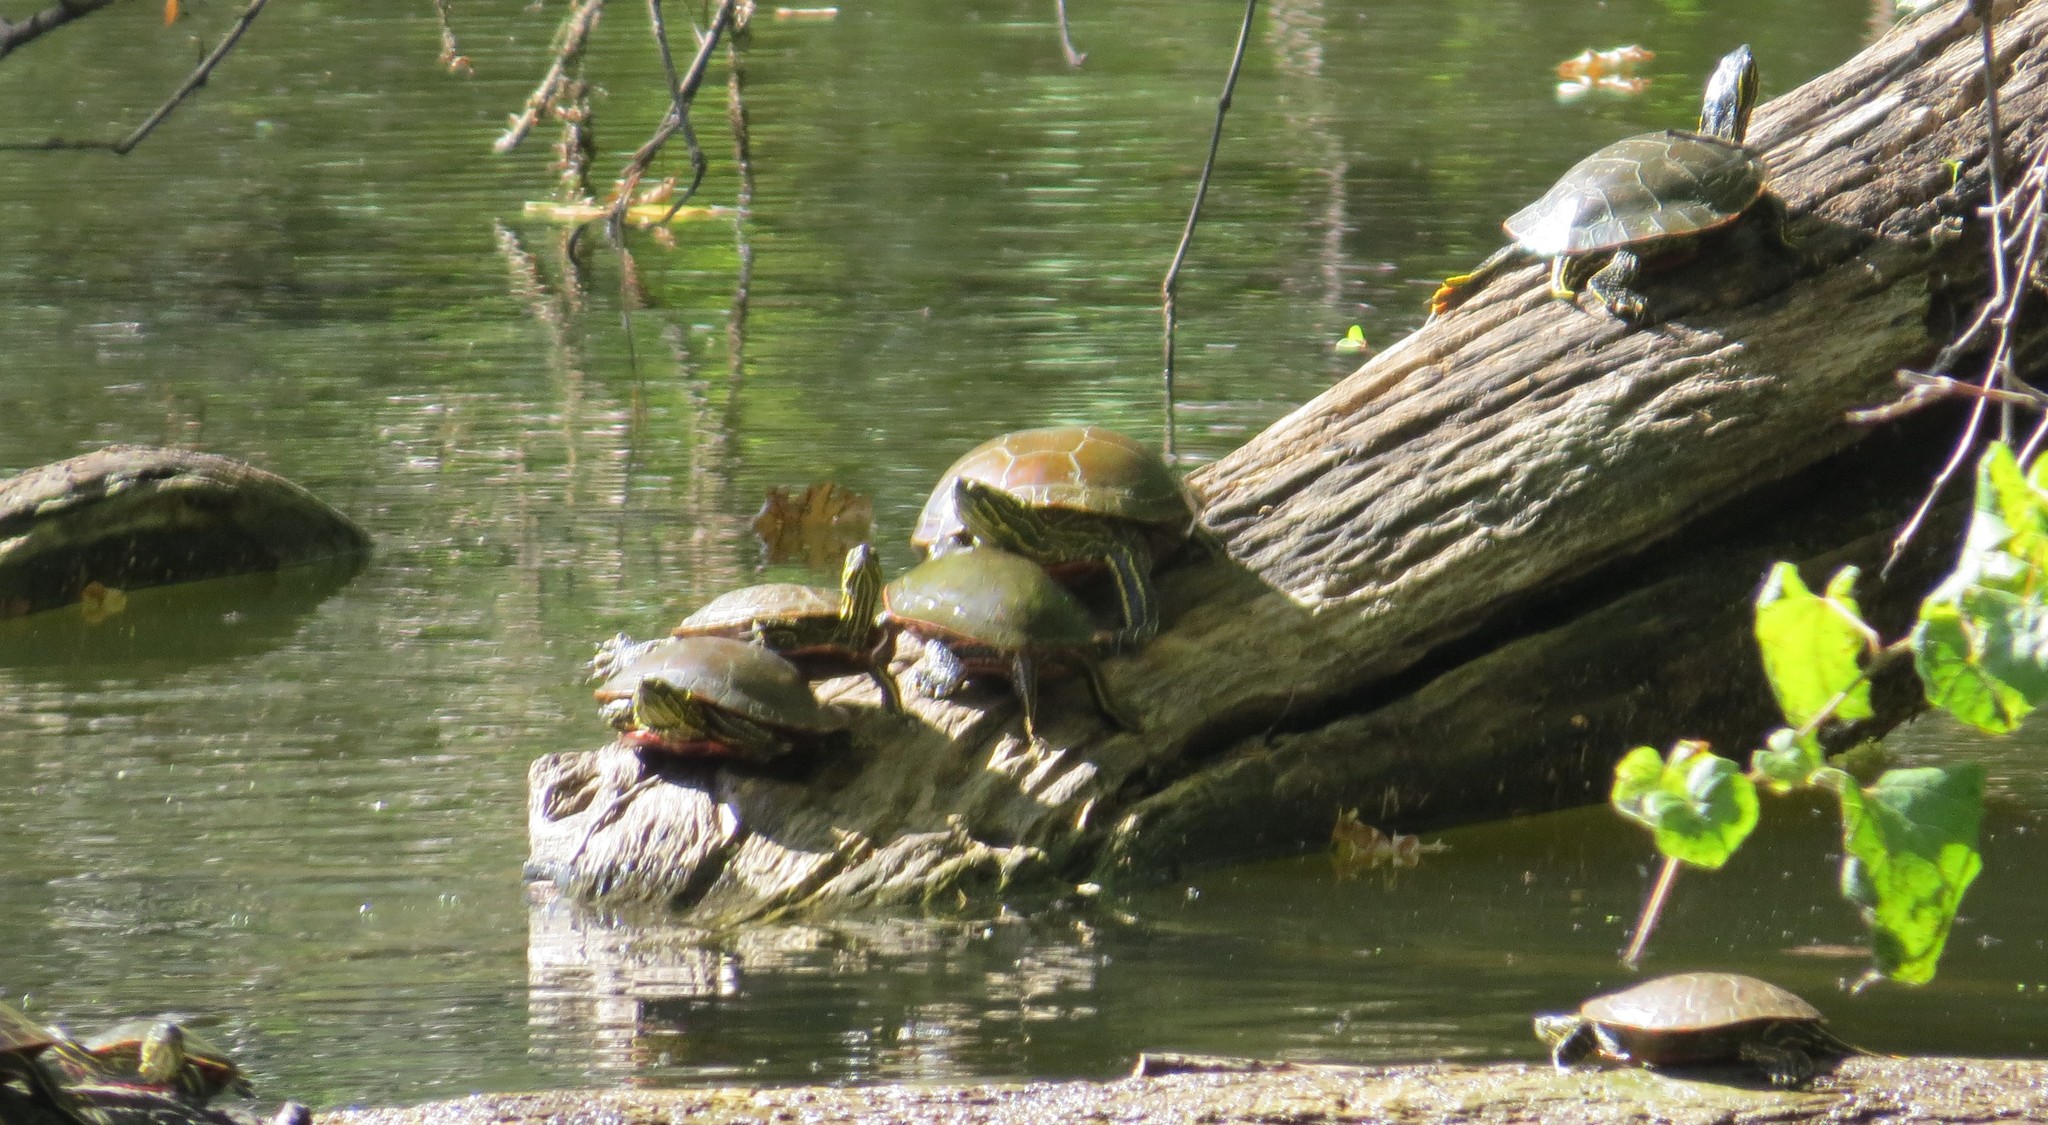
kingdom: Animalia
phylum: Chordata
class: Testudines
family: Emydidae
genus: Chrysemys
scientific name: Chrysemys picta
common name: Painted turtle
